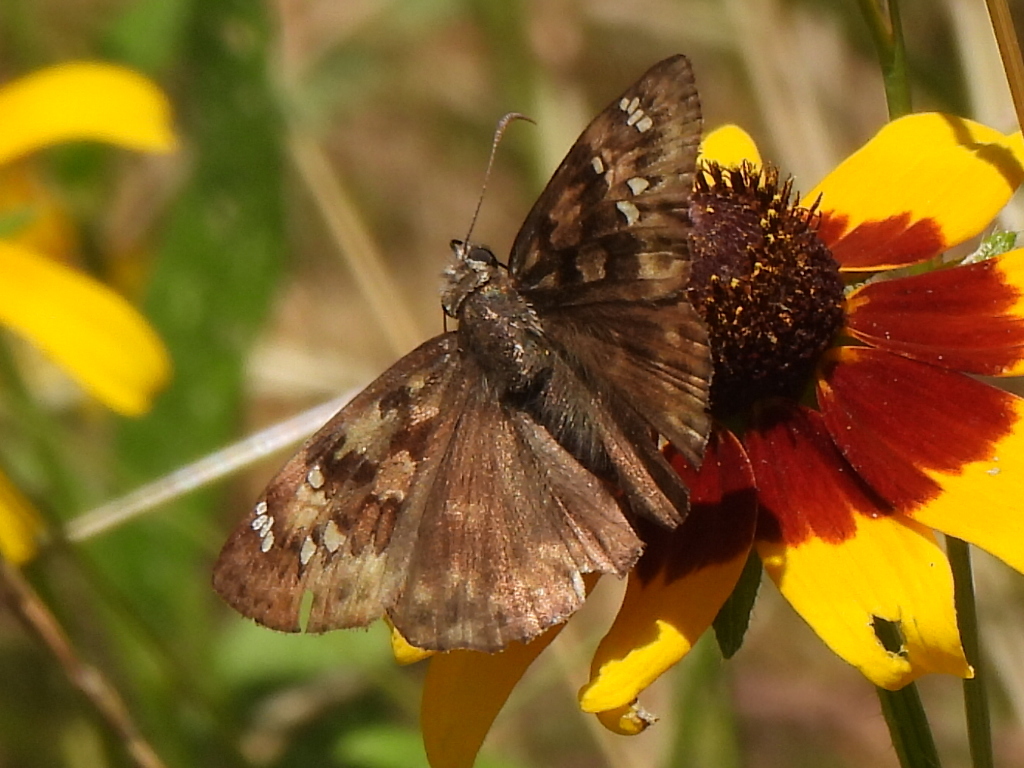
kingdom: Animalia
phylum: Arthropoda
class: Insecta
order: Lepidoptera
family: Hesperiidae
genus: Erynnis
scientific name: Erynnis horatius
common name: Horace's duskywing
